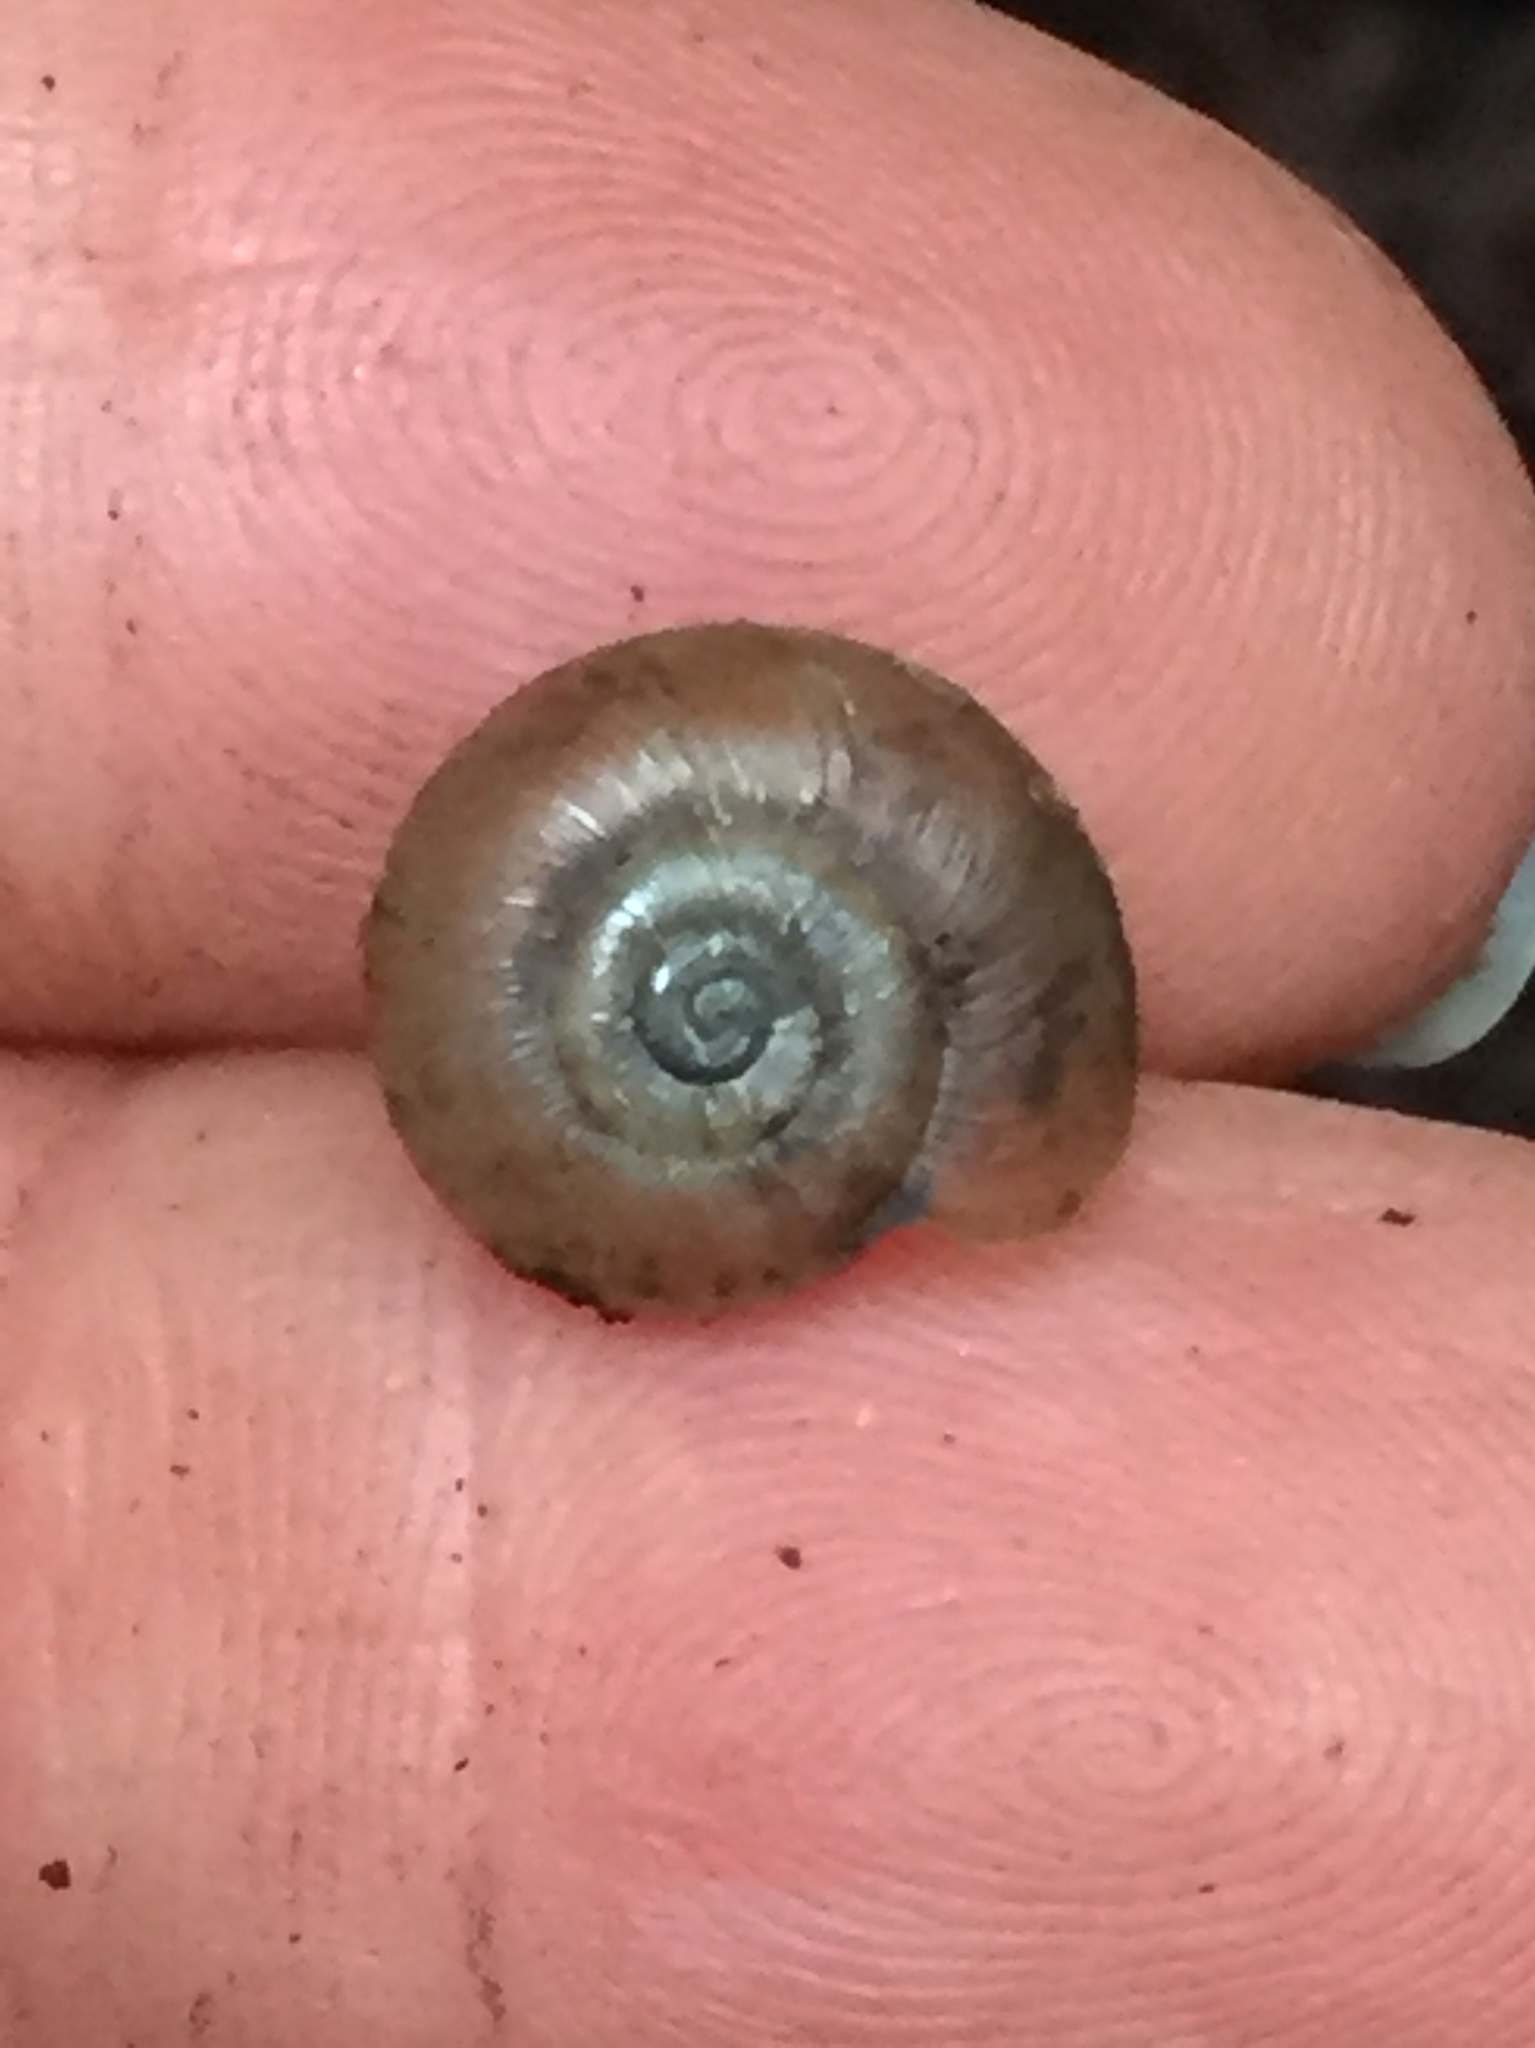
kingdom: Animalia
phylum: Mollusca
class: Gastropoda
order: Stylommatophora
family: Haplotrematidae
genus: Haplotrema
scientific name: Haplotrema minimum
